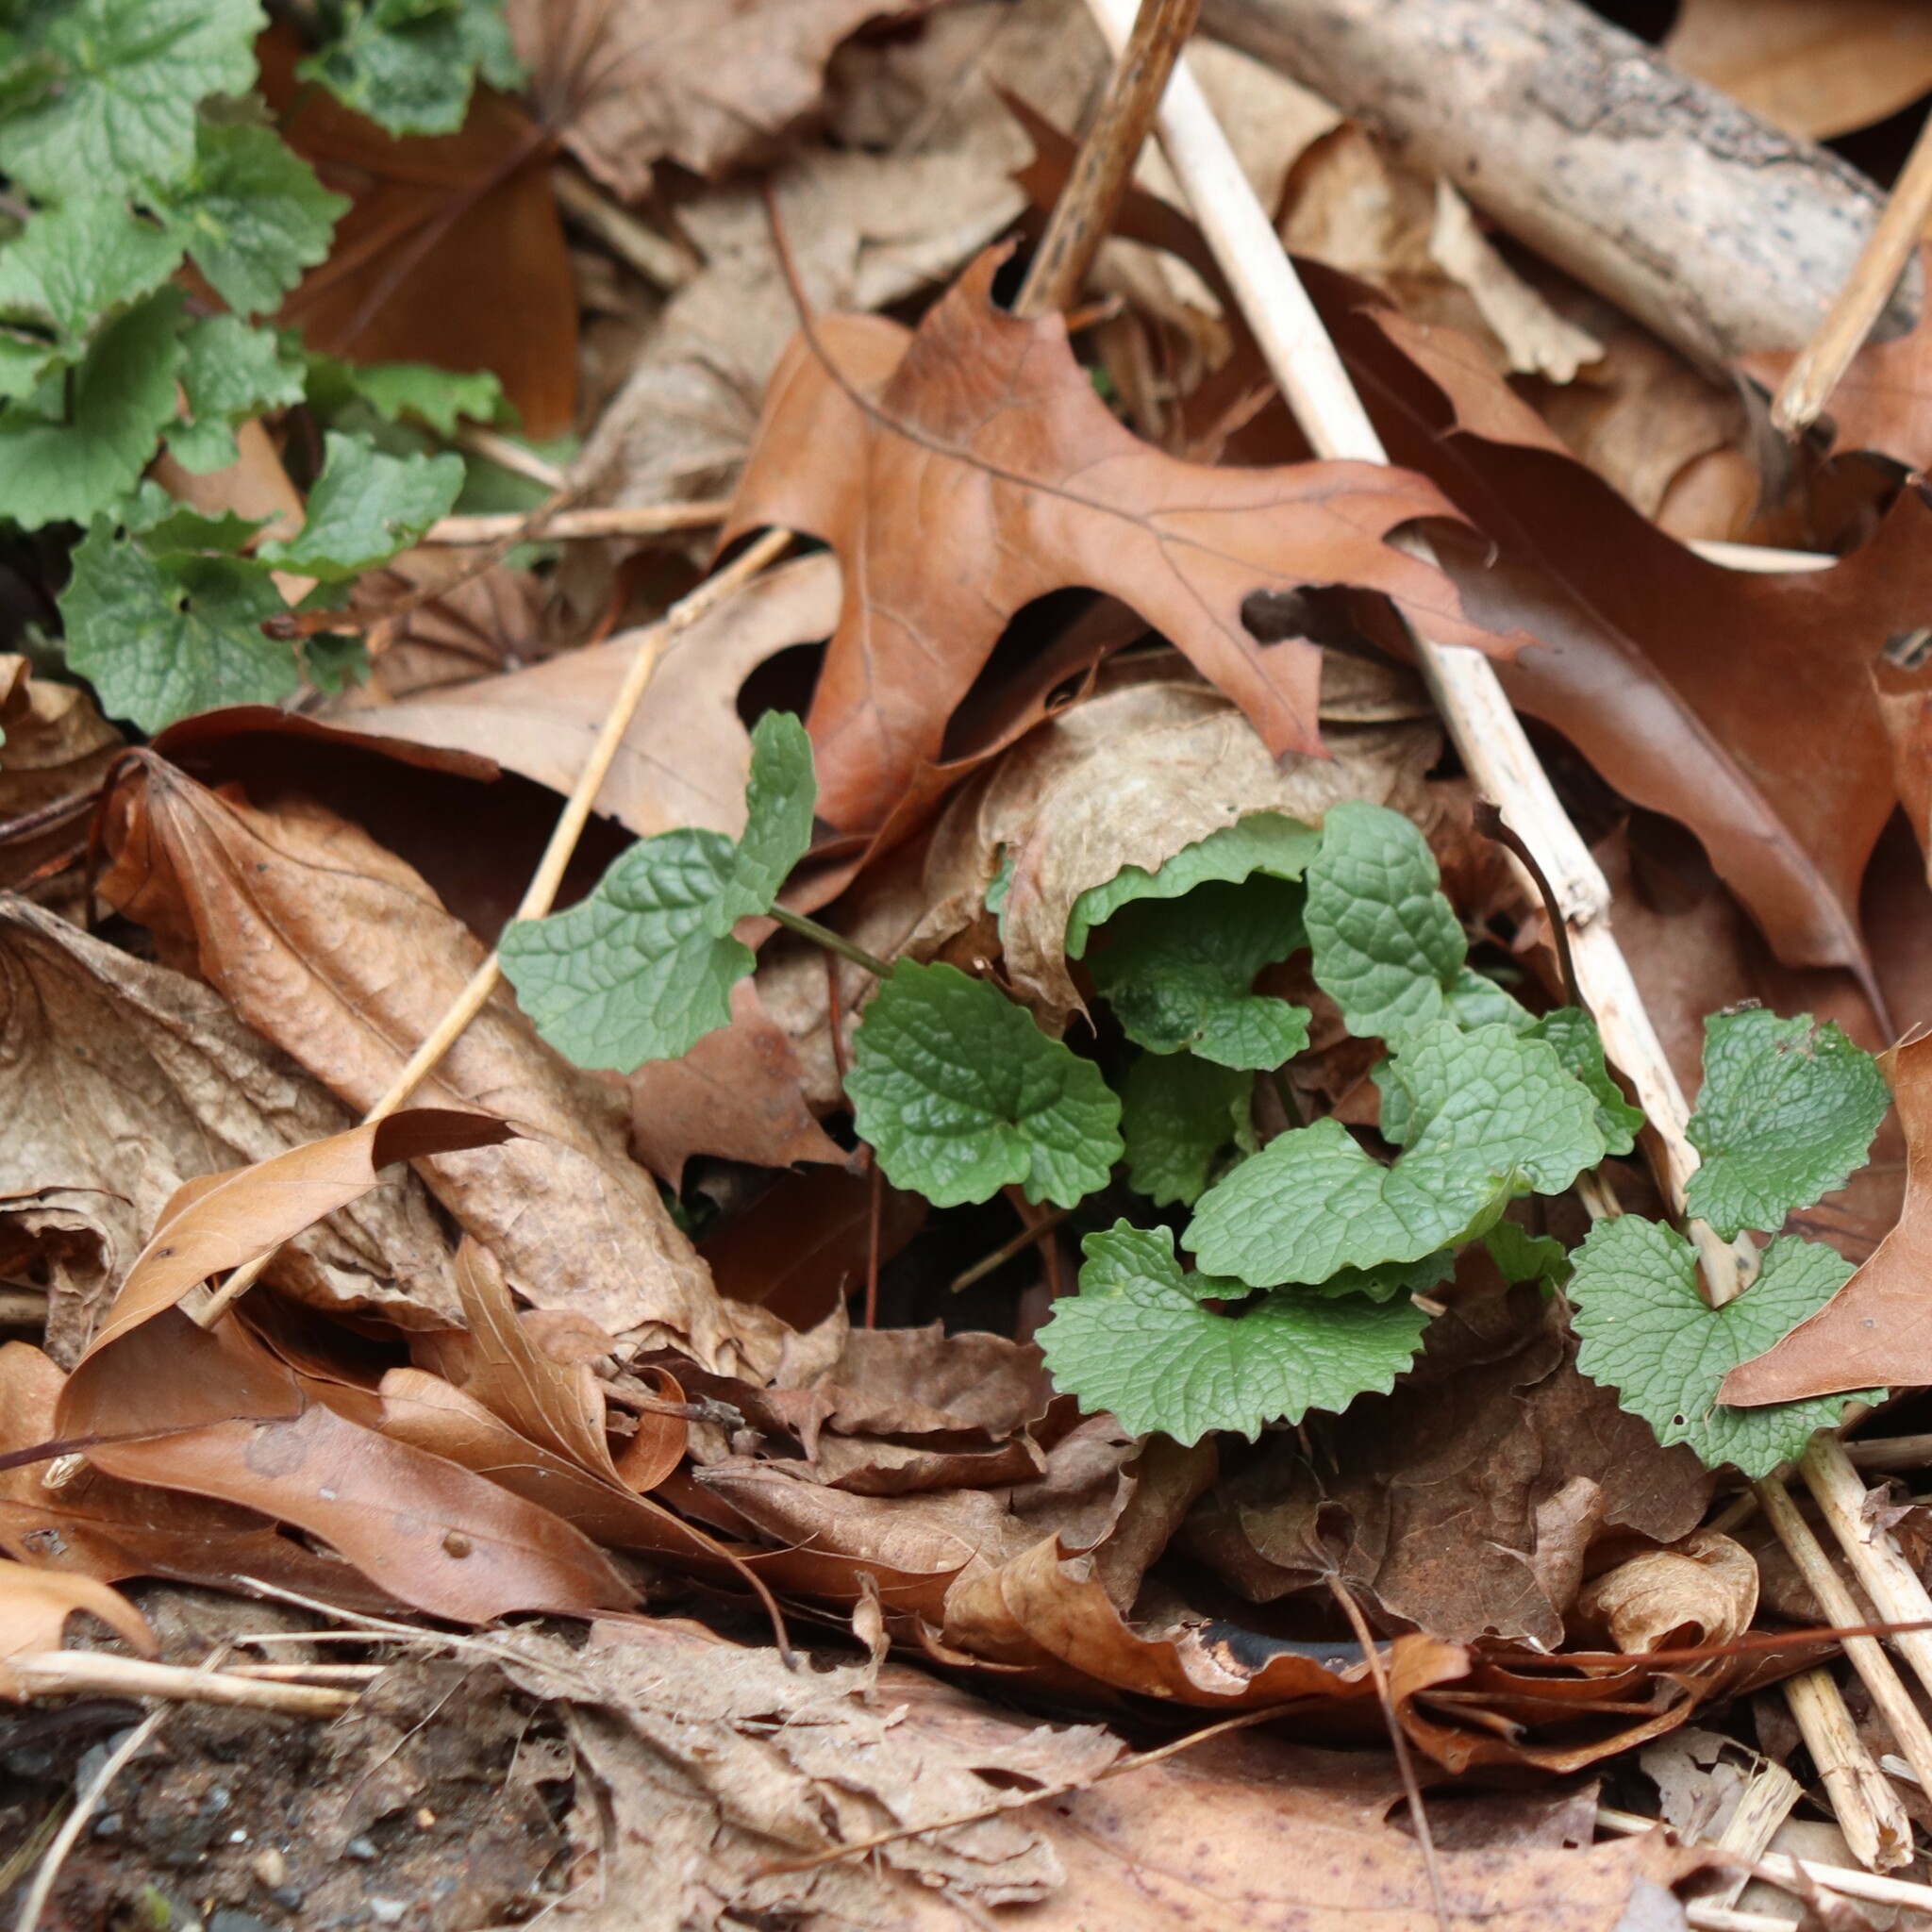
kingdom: Plantae
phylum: Tracheophyta
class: Magnoliopsida
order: Brassicales
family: Brassicaceae
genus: Alliaria
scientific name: Alliaria petiolata
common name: Garlic mustard
